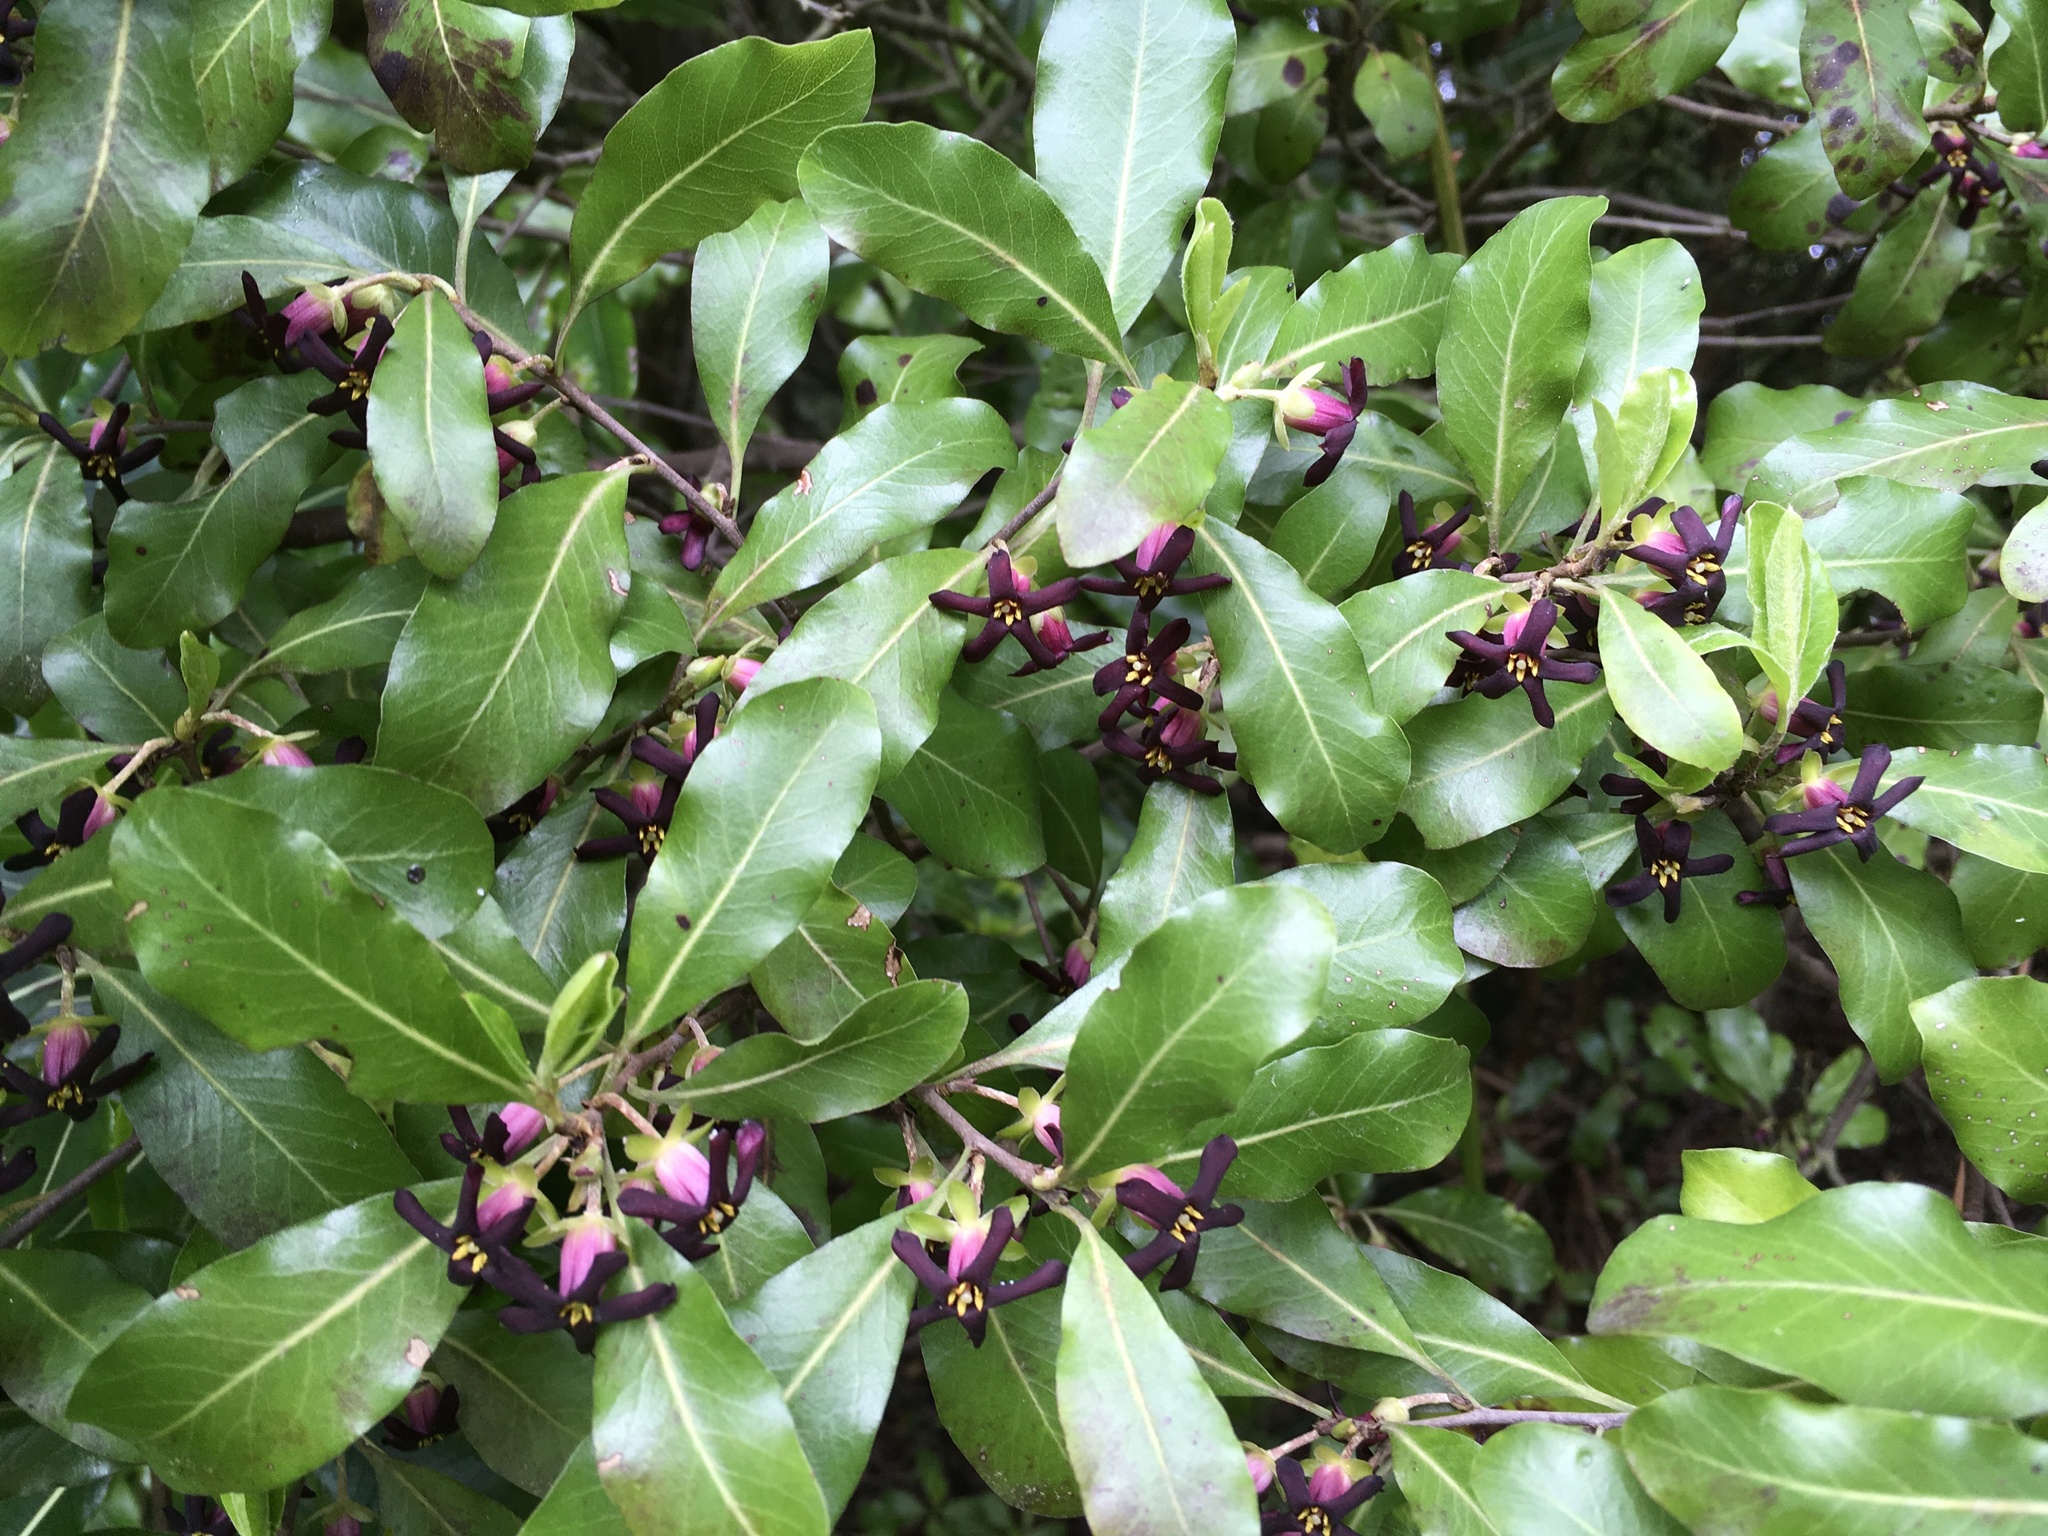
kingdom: Plantae
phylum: Tracheophyta
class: Magnoliopsida
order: Apiales
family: Pittosporaceae
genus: Pittosporum
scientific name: Pittosporum tenuifolium
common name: Kohuhu
